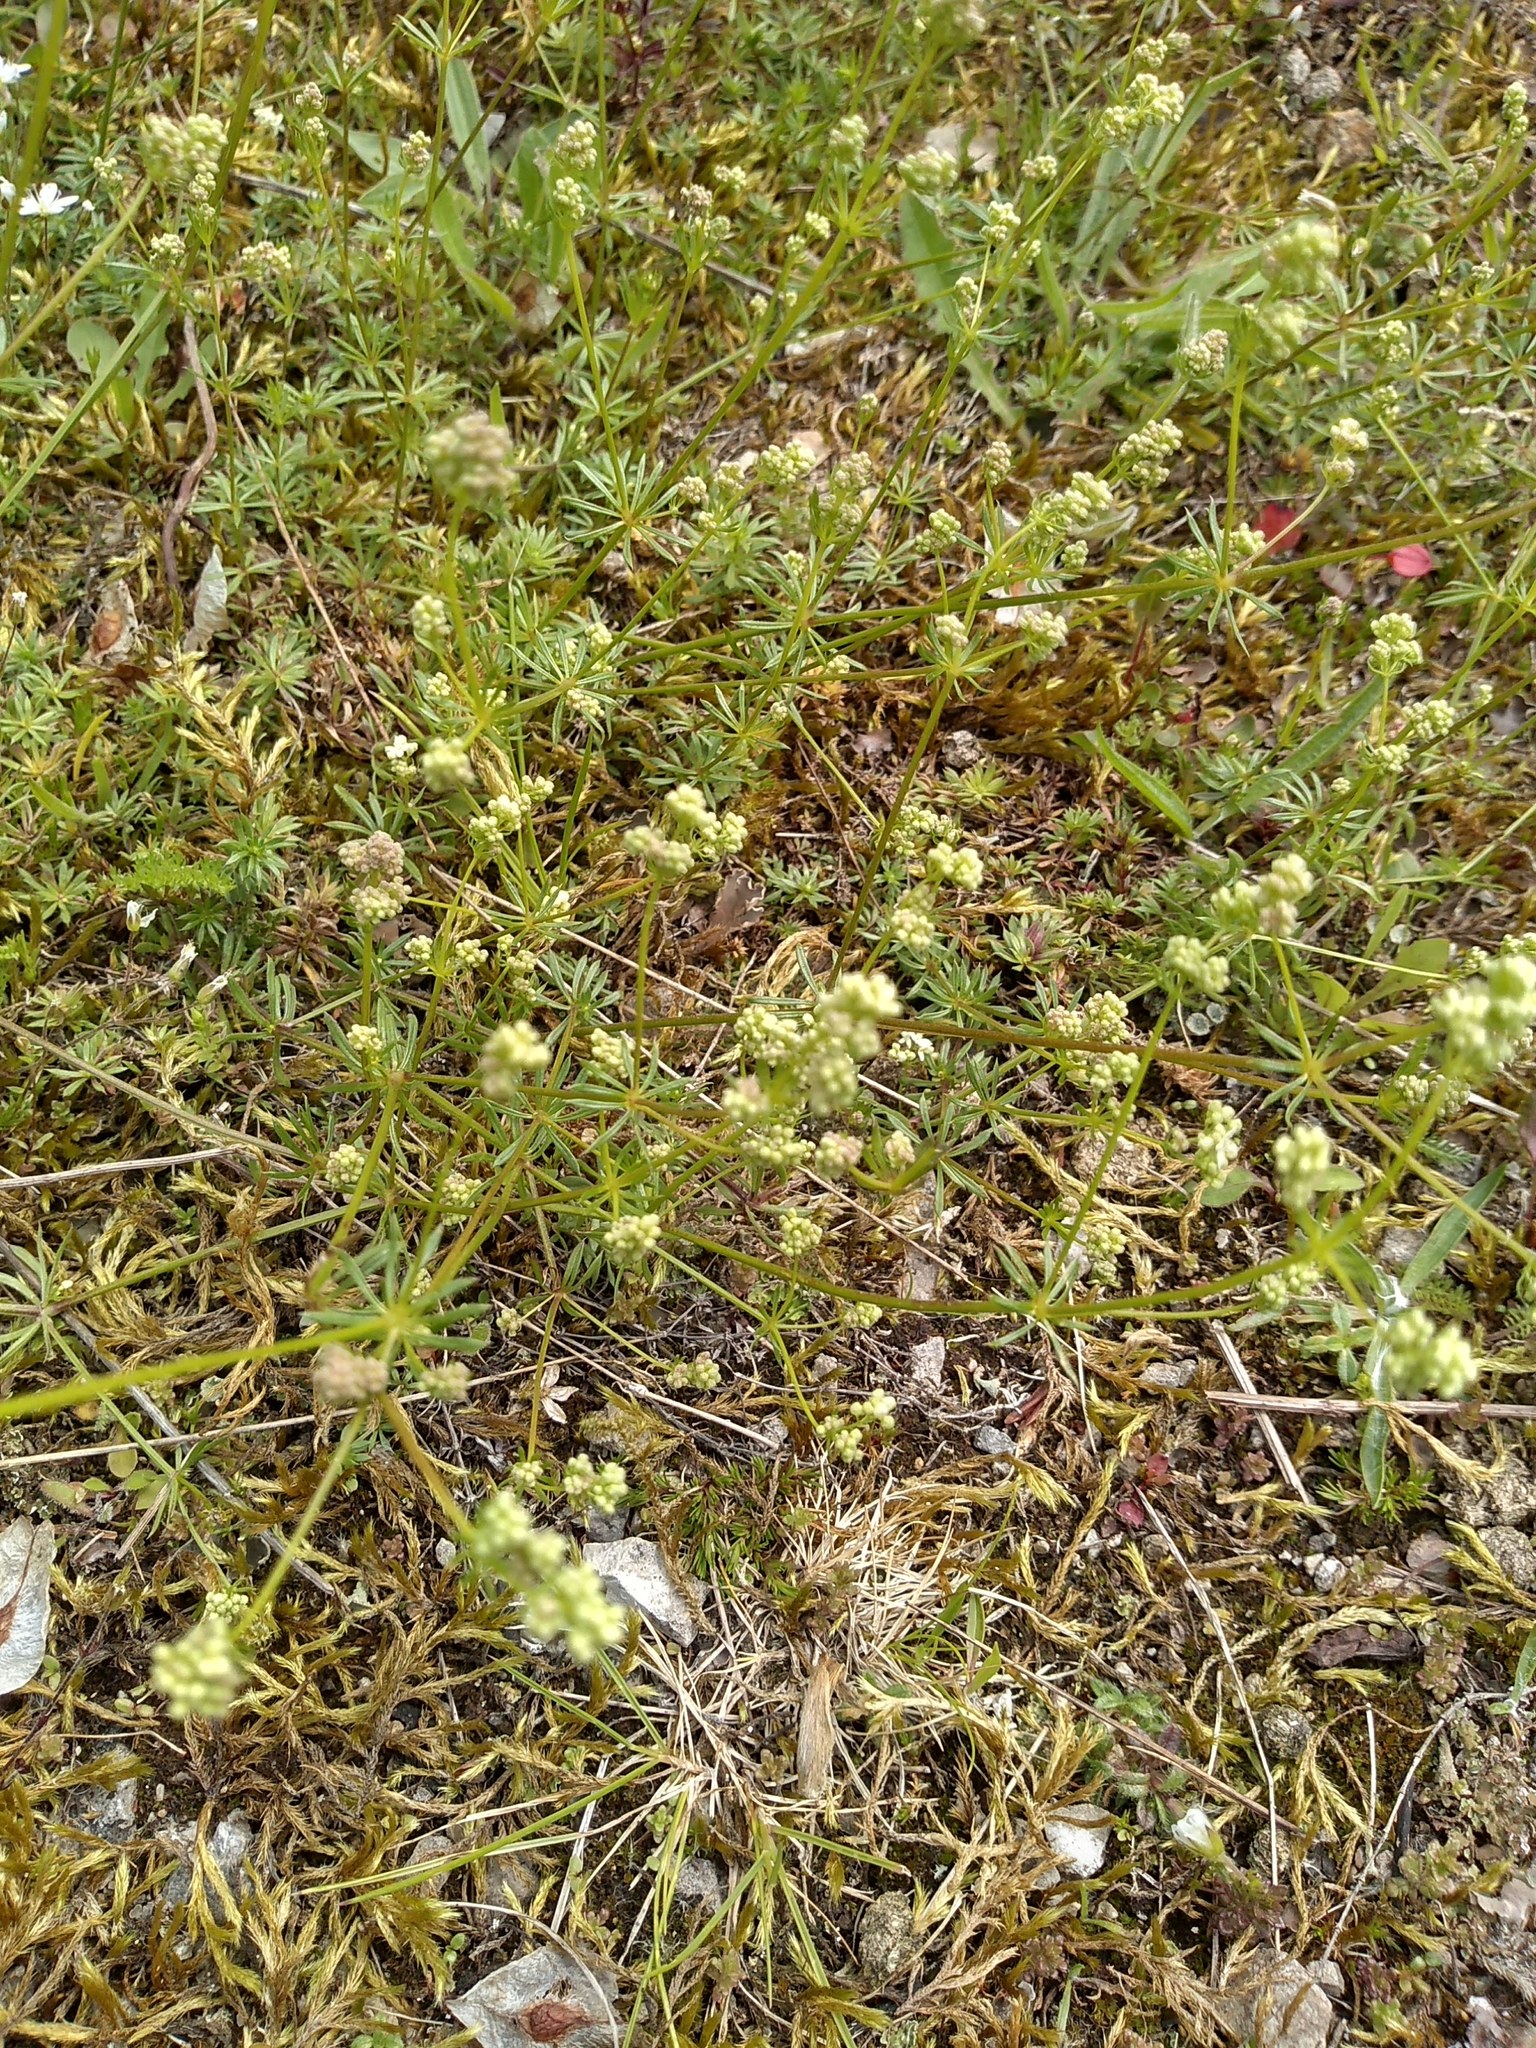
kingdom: Plantae
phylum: Tracheophyta
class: Magnoliopsida
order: Gentianales
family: Rubiaceae
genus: Galium
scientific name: Galium saxatile
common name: Heath bedstraw
